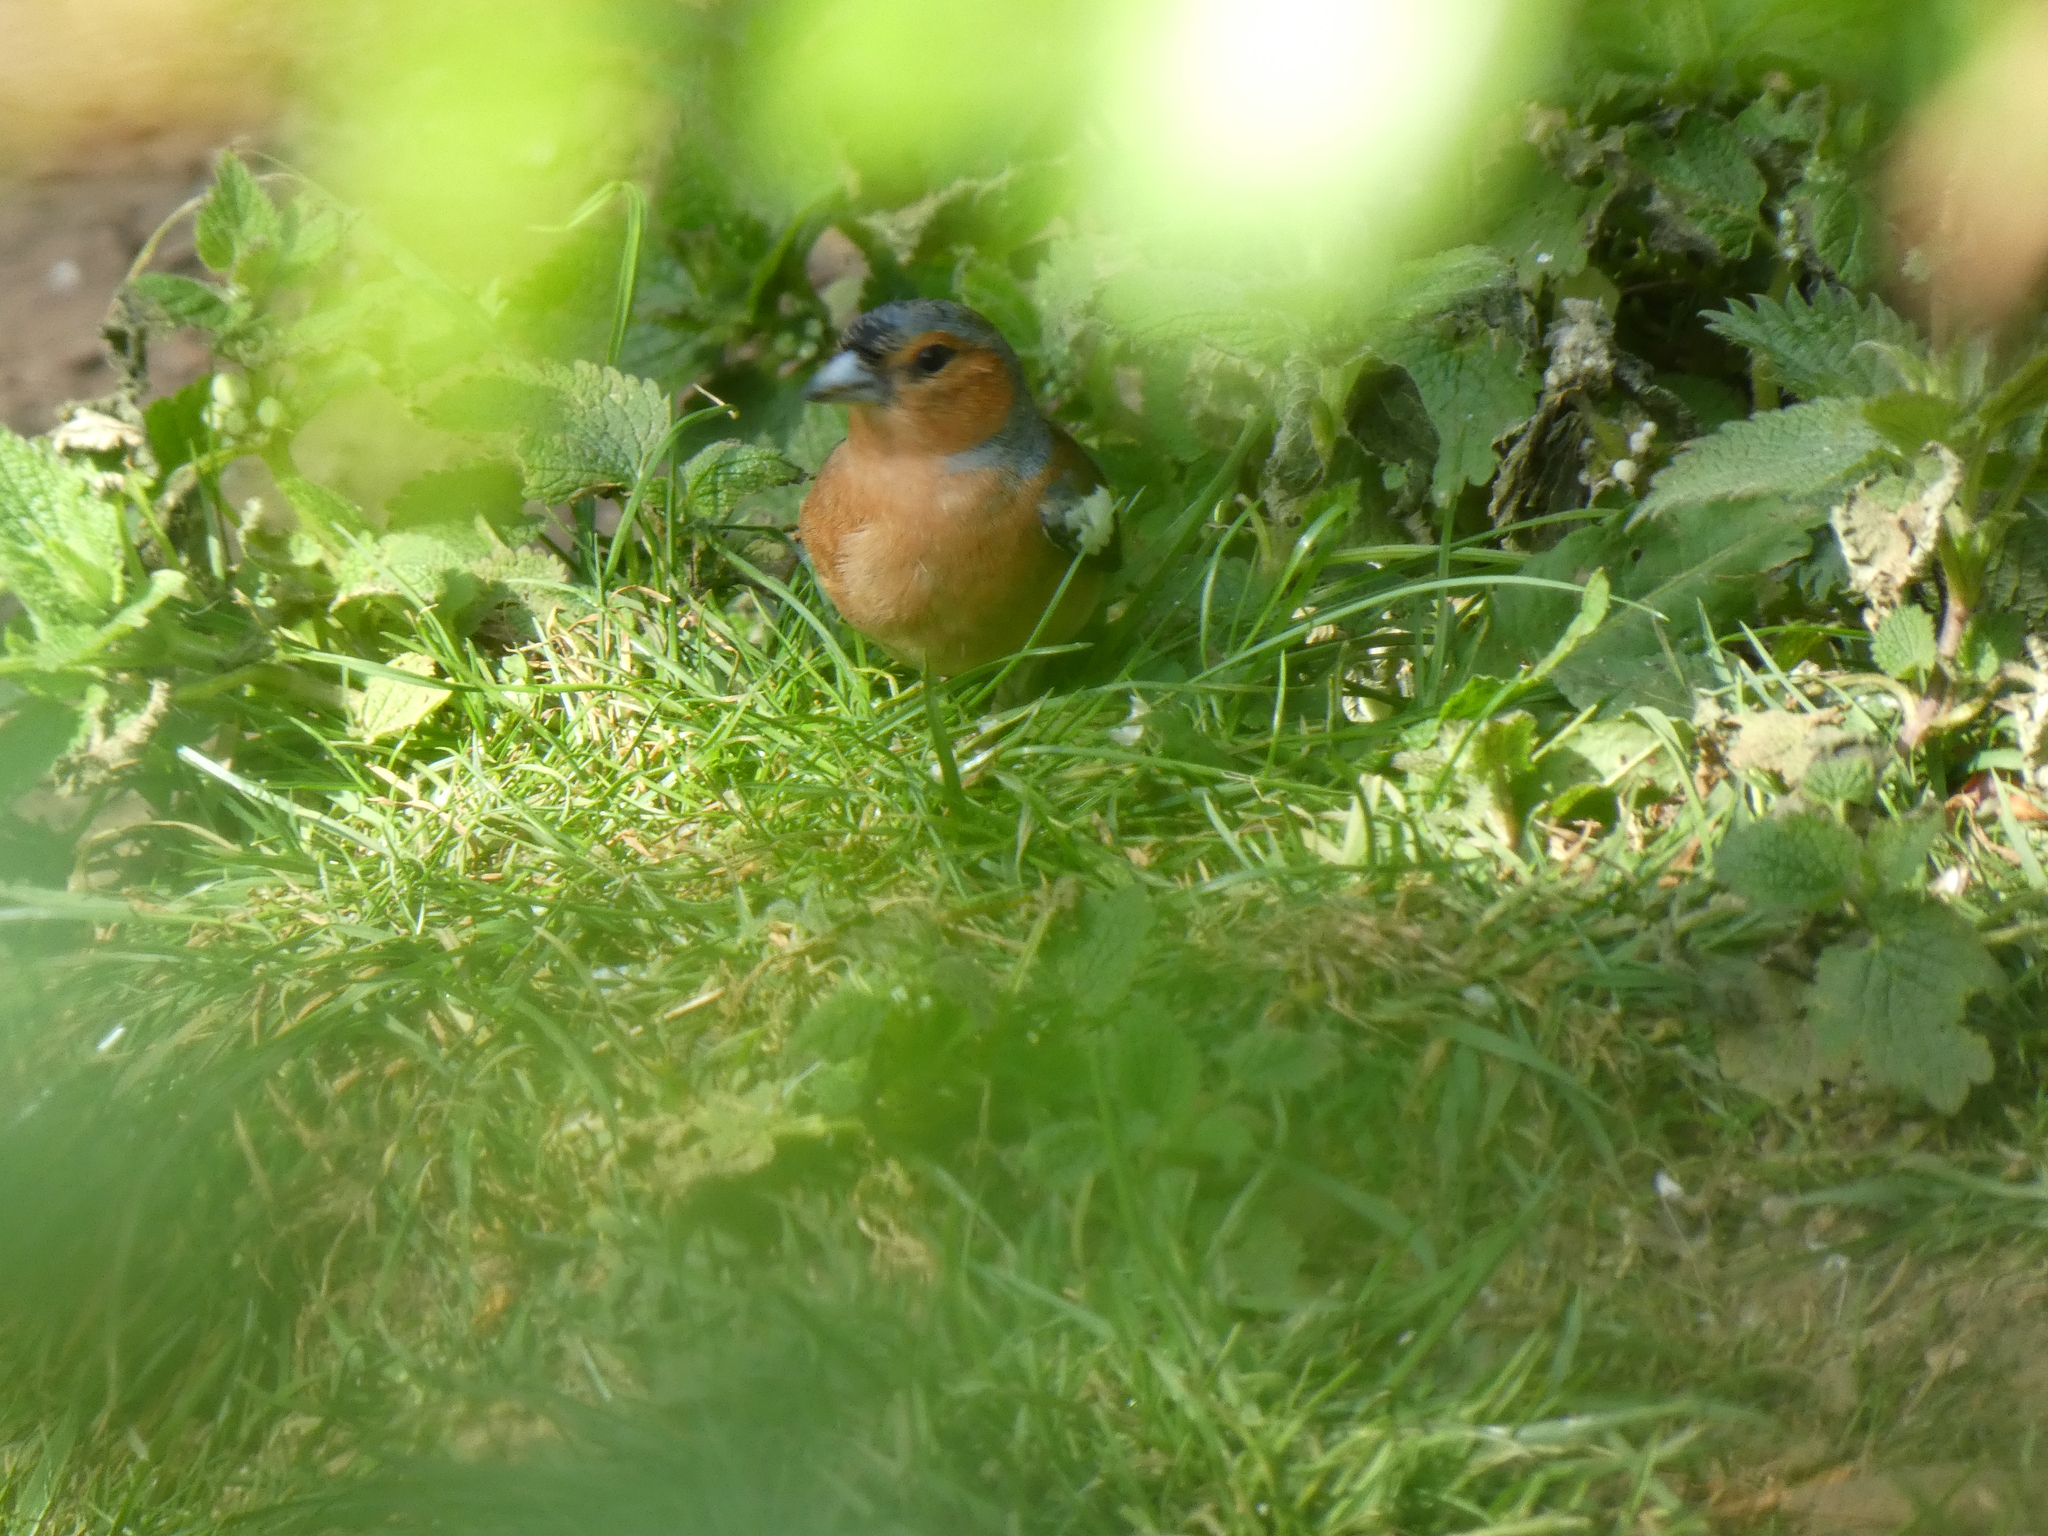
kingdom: Animalia
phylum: Chordata
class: Aves
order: Passeriformes
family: Fringillidae
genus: Fringilla
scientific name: Fringilla coelebs
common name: Common chaffinch
